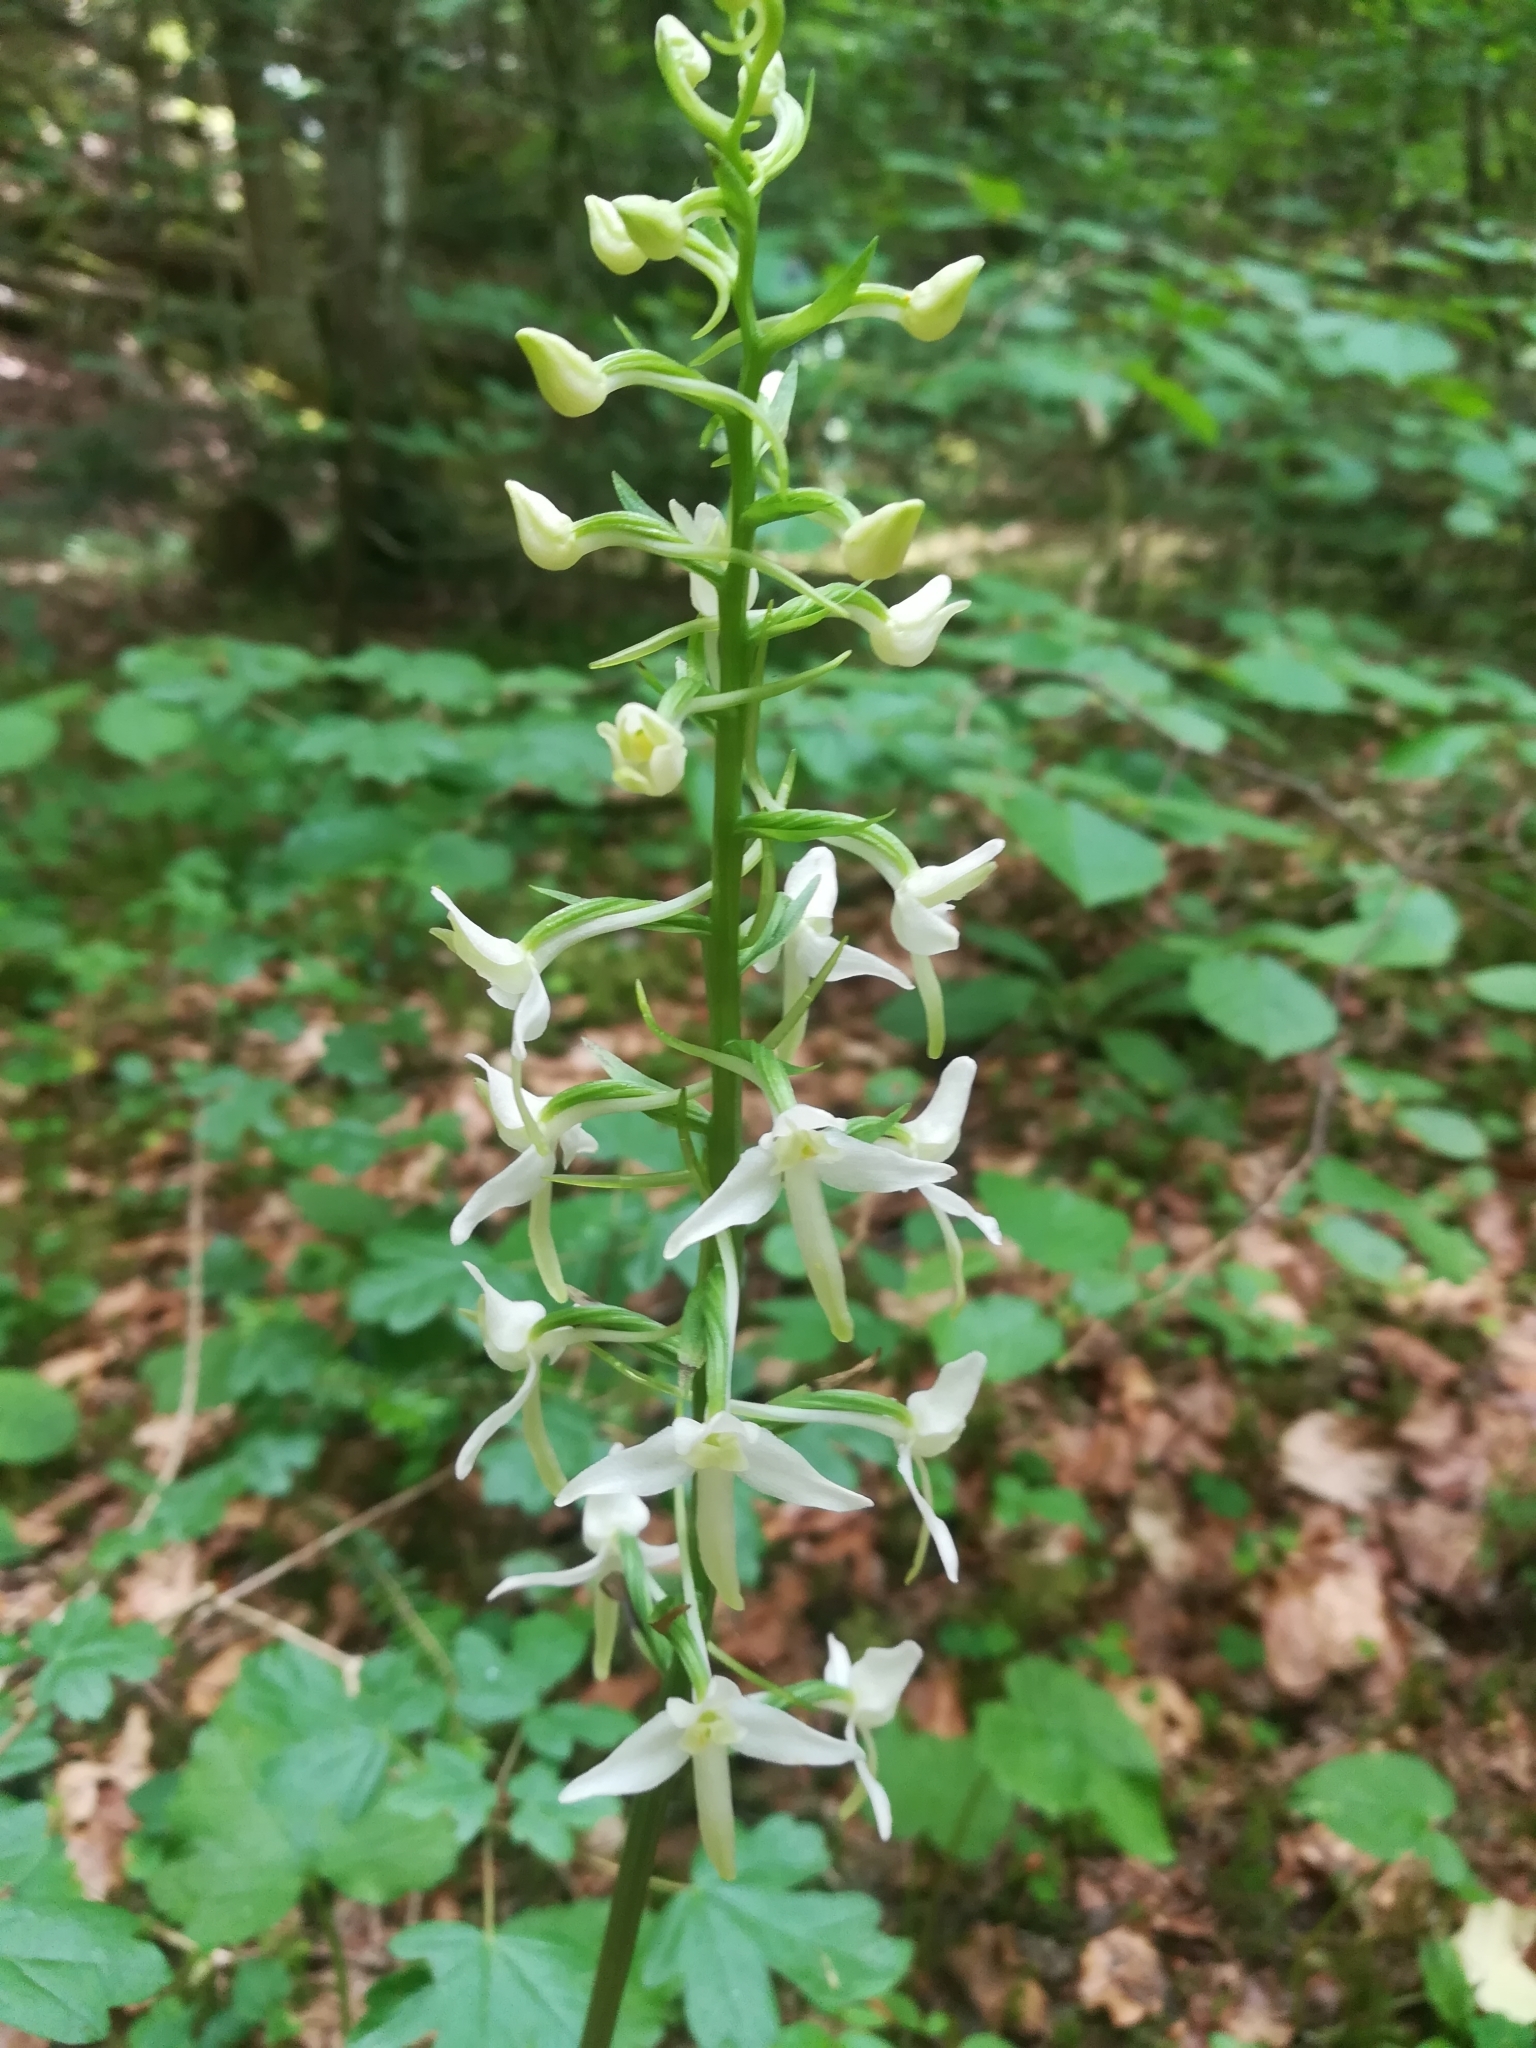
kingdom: Plantae
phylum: Tracheophyta
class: Liliopsida
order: Asparagales
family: Orchidaceae
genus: Platanthera
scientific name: Platanthera bifolia
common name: Lesser butterfly-orchid
